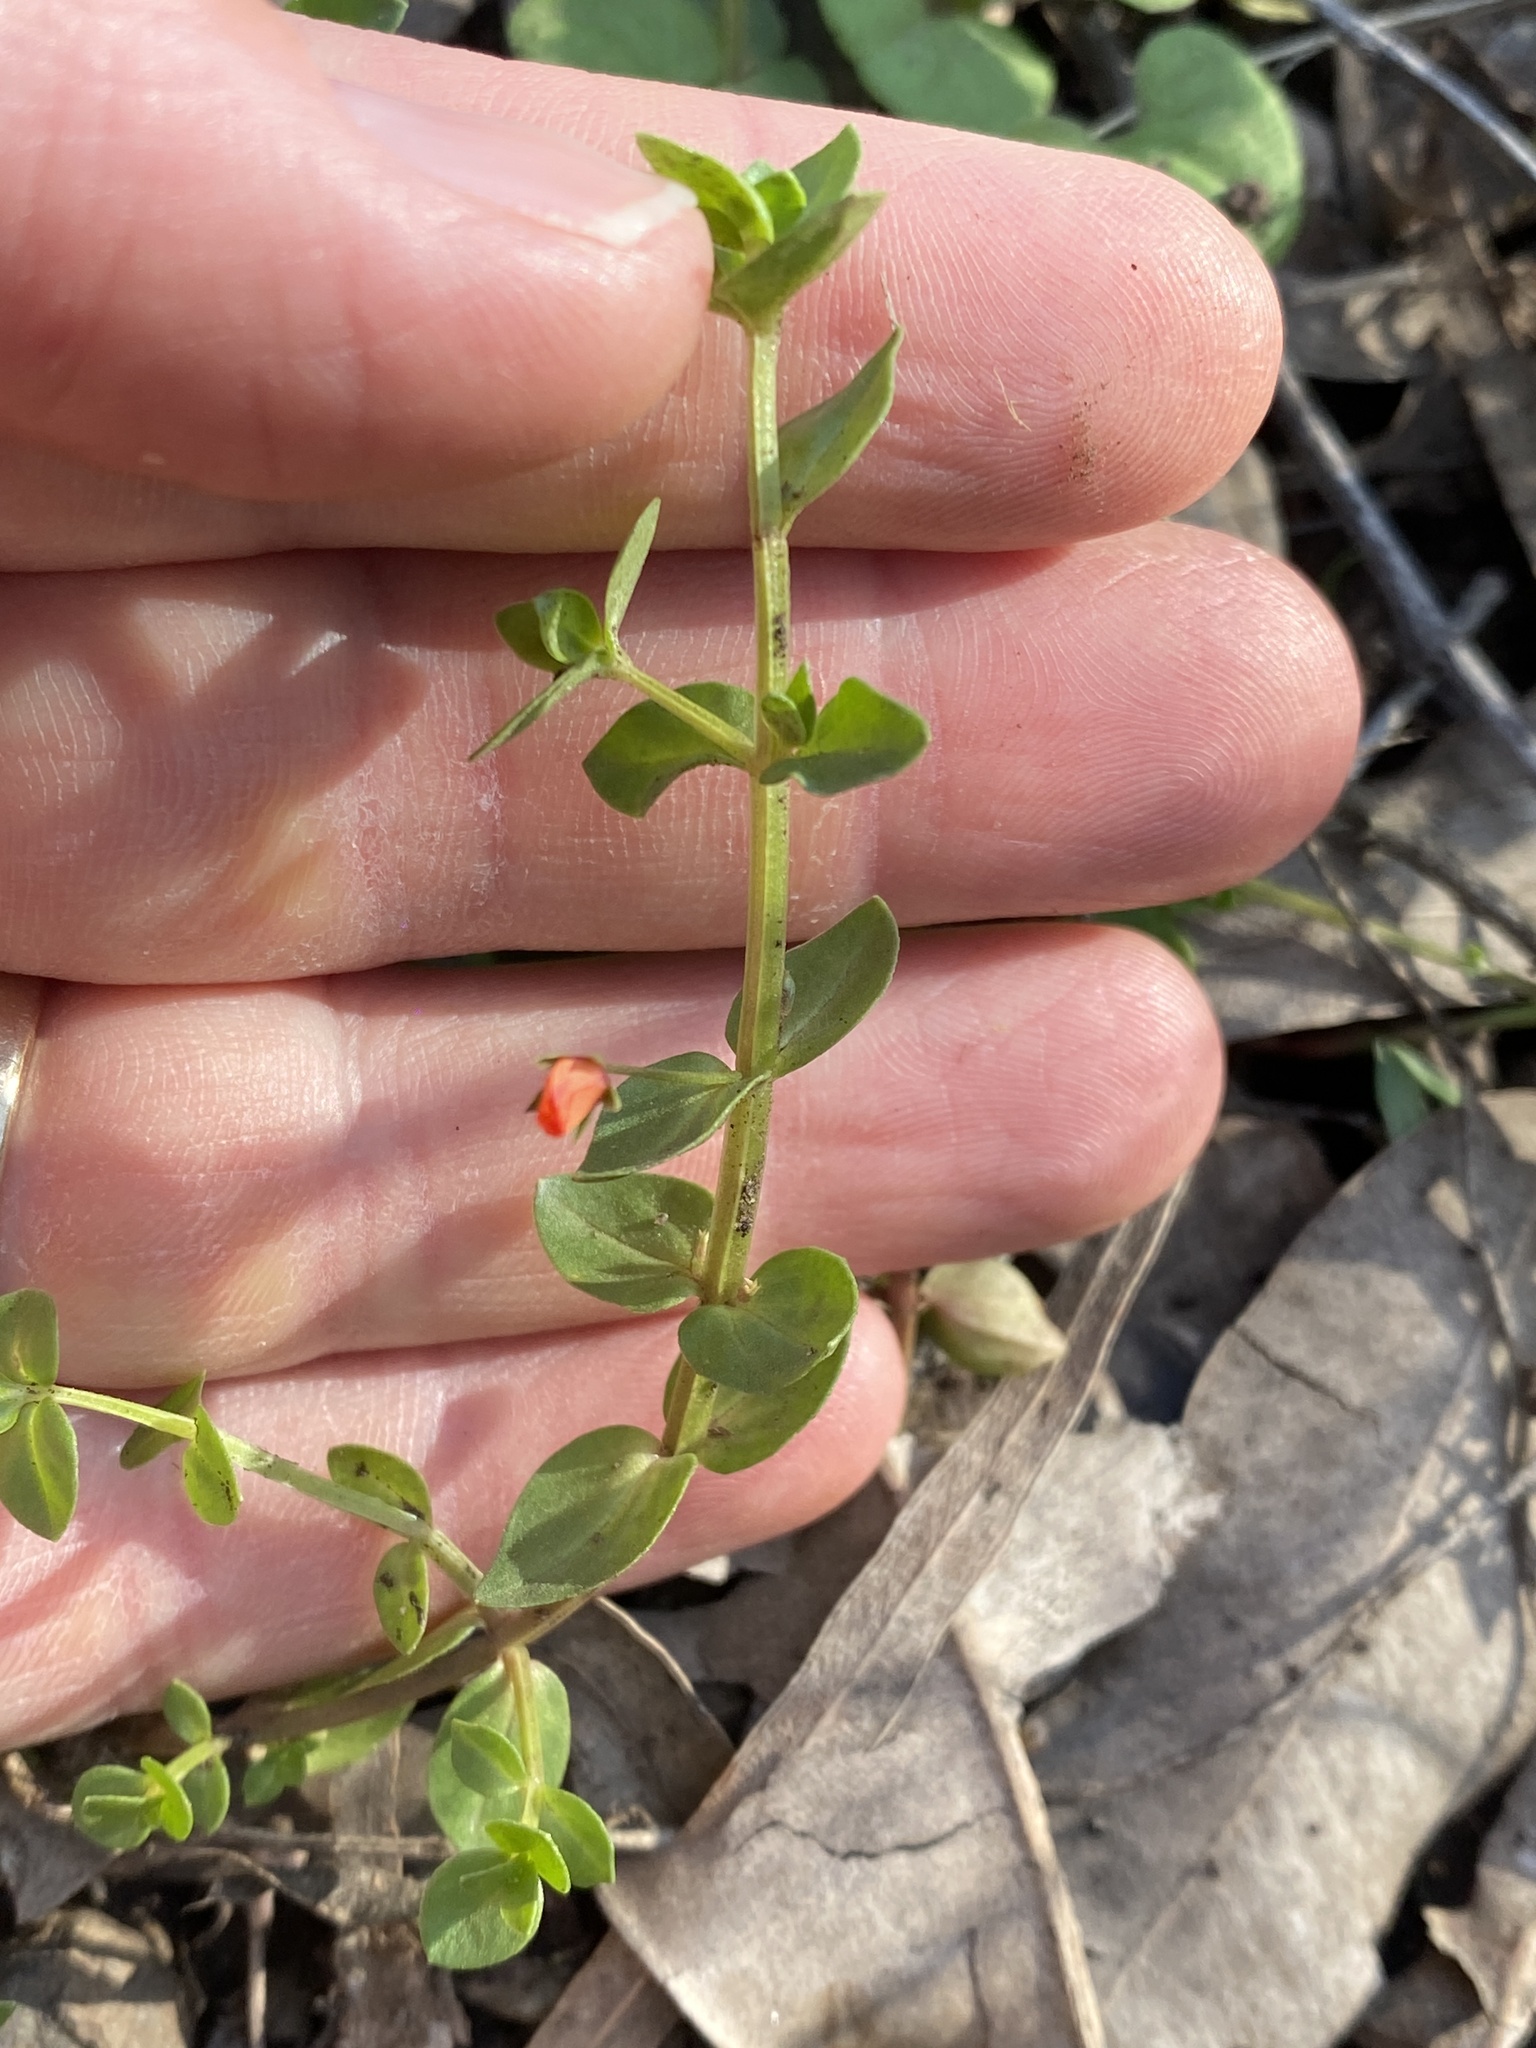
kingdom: Plantae
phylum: Tracheophyta
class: Magnoliopsida
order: Ericales
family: Primulaceae
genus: Lysimachia
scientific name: Lysimachia arvensis
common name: Scarlet pimpernel
